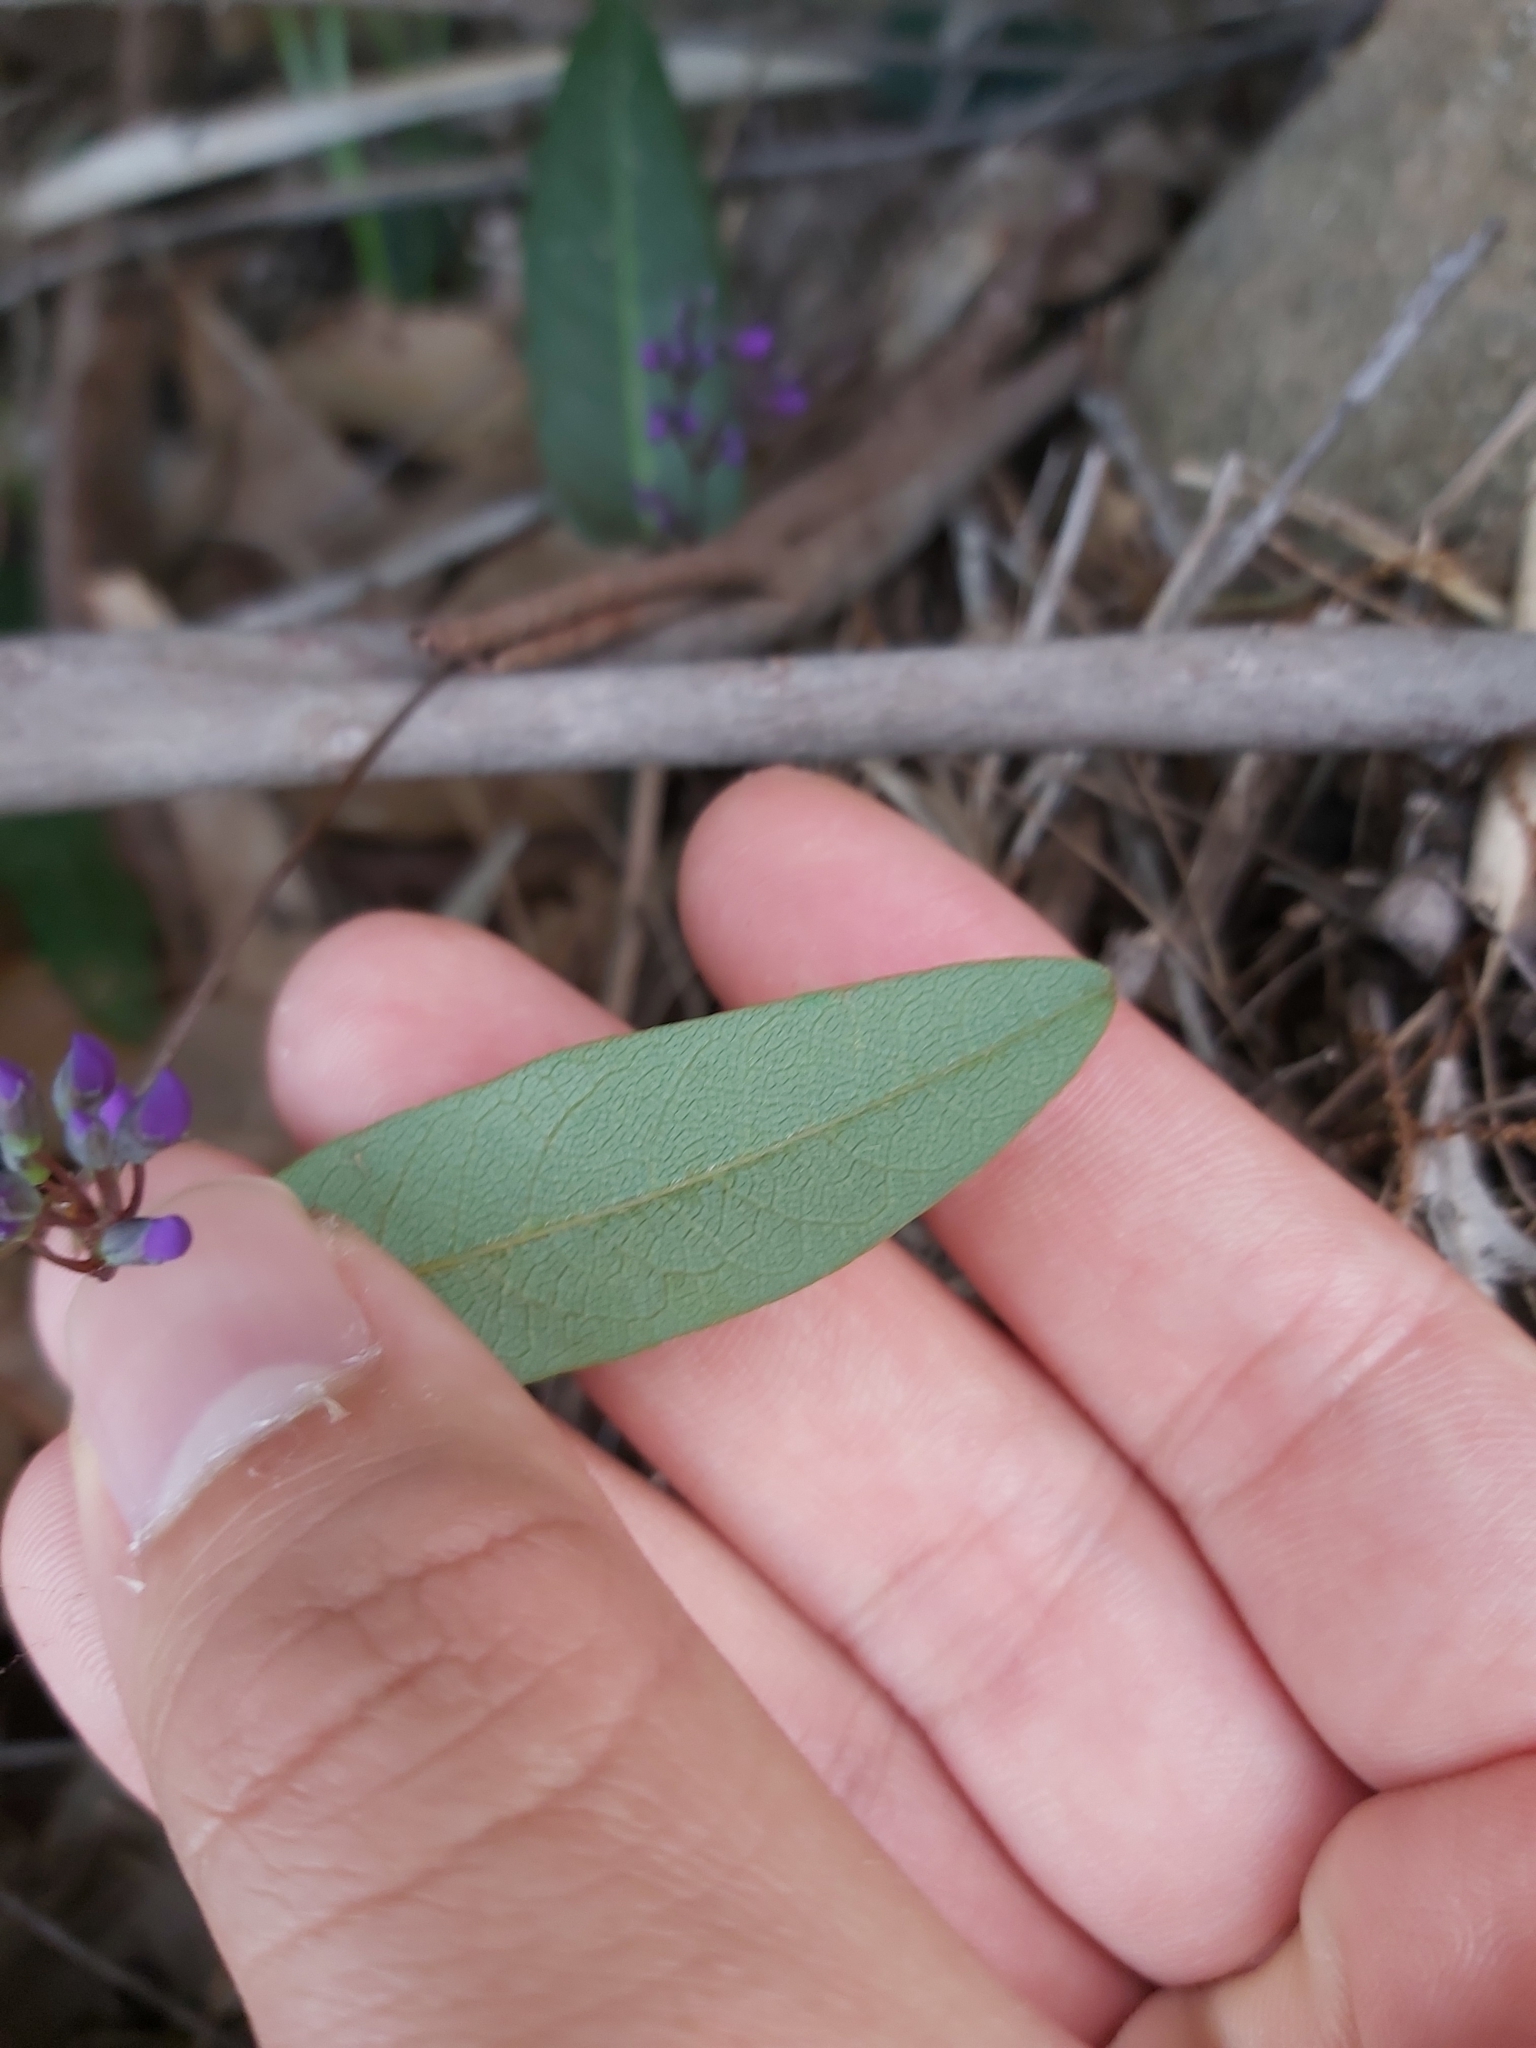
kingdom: Plantae
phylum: Tracheophyta
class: Magnoliopsida
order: Fabales
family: Fabaceae
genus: Hardenbergia
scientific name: Hardenbergia violacea
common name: Coral-pea
